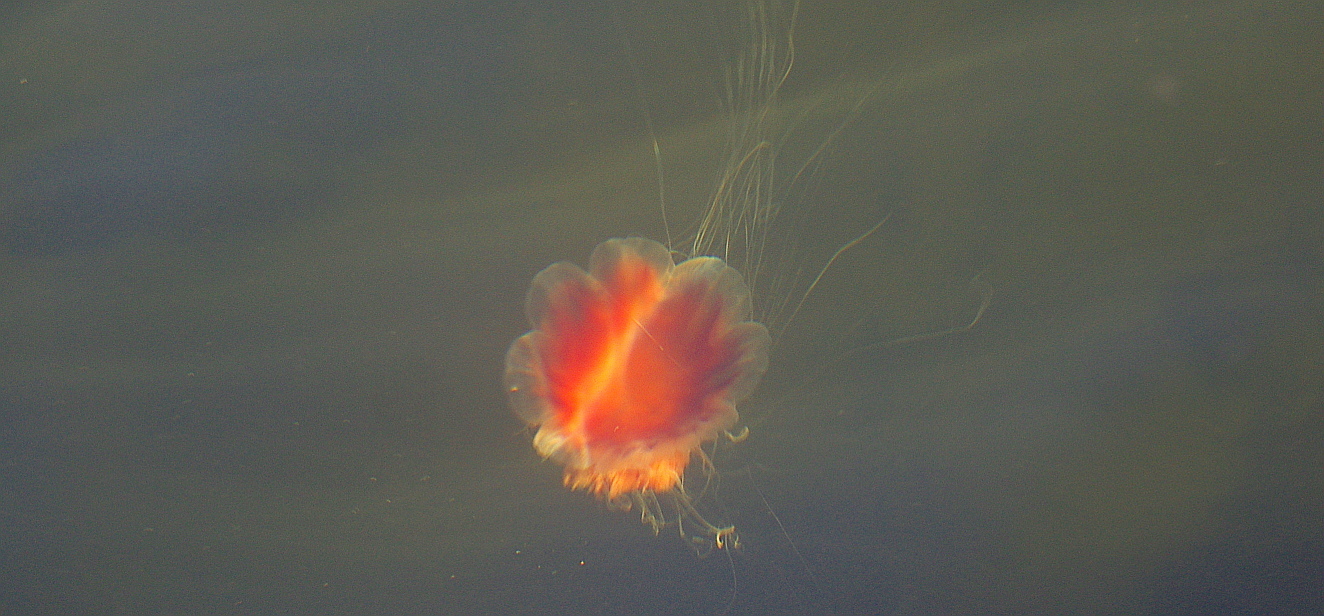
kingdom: Animalia
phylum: Cnidaria
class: Scyphozoa
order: Semaeostomeae
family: Cyaneidae
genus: Cyanea
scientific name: Cyanea capillata
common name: Lion's mane jellyfish
